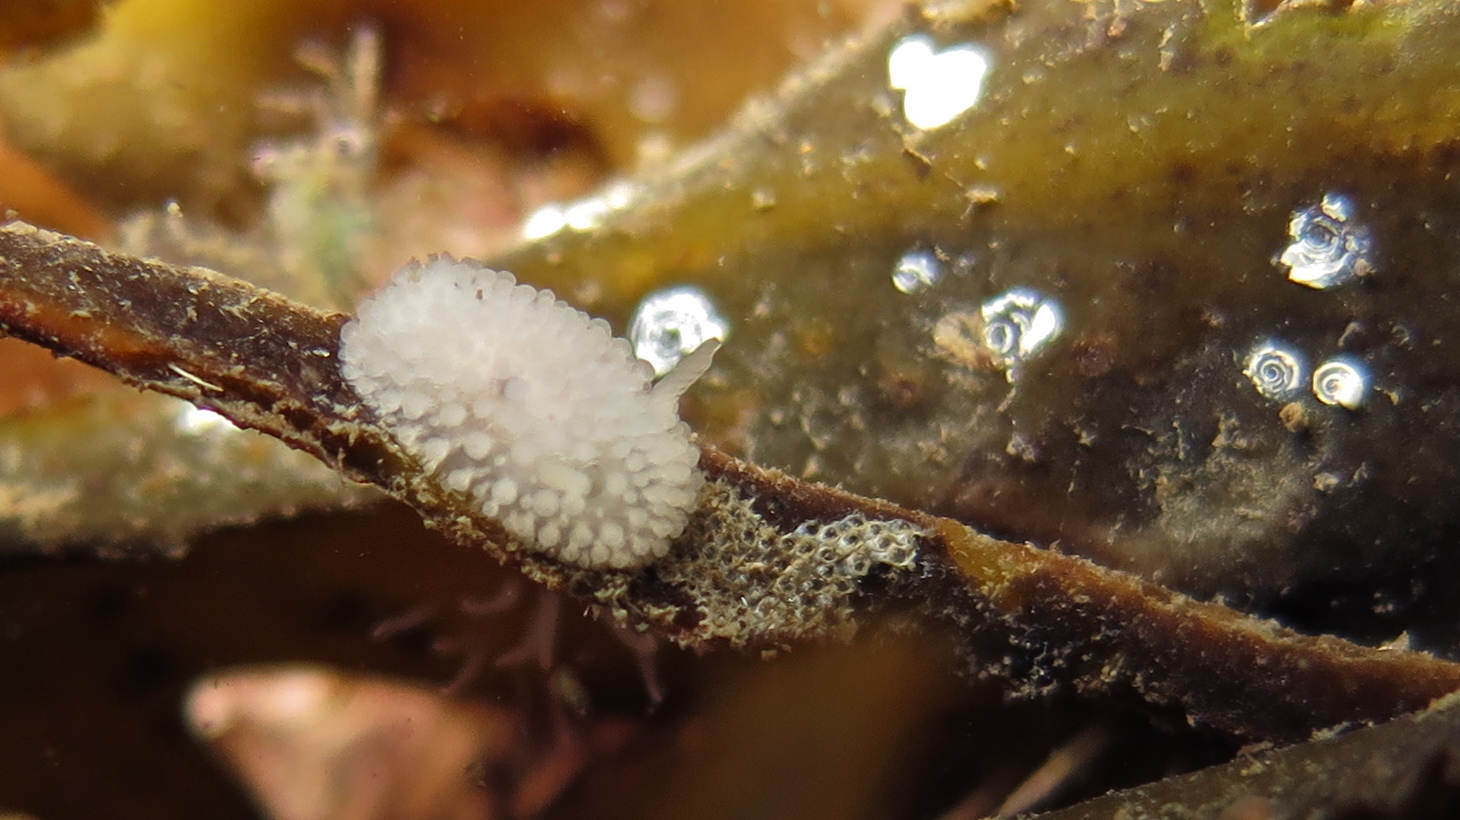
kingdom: Animalia
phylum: Mollusca
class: Gastropoda
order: Nudibranchia
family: Onchidorididae
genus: Onchidoris
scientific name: Onchidoris muricata
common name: Rough doris
